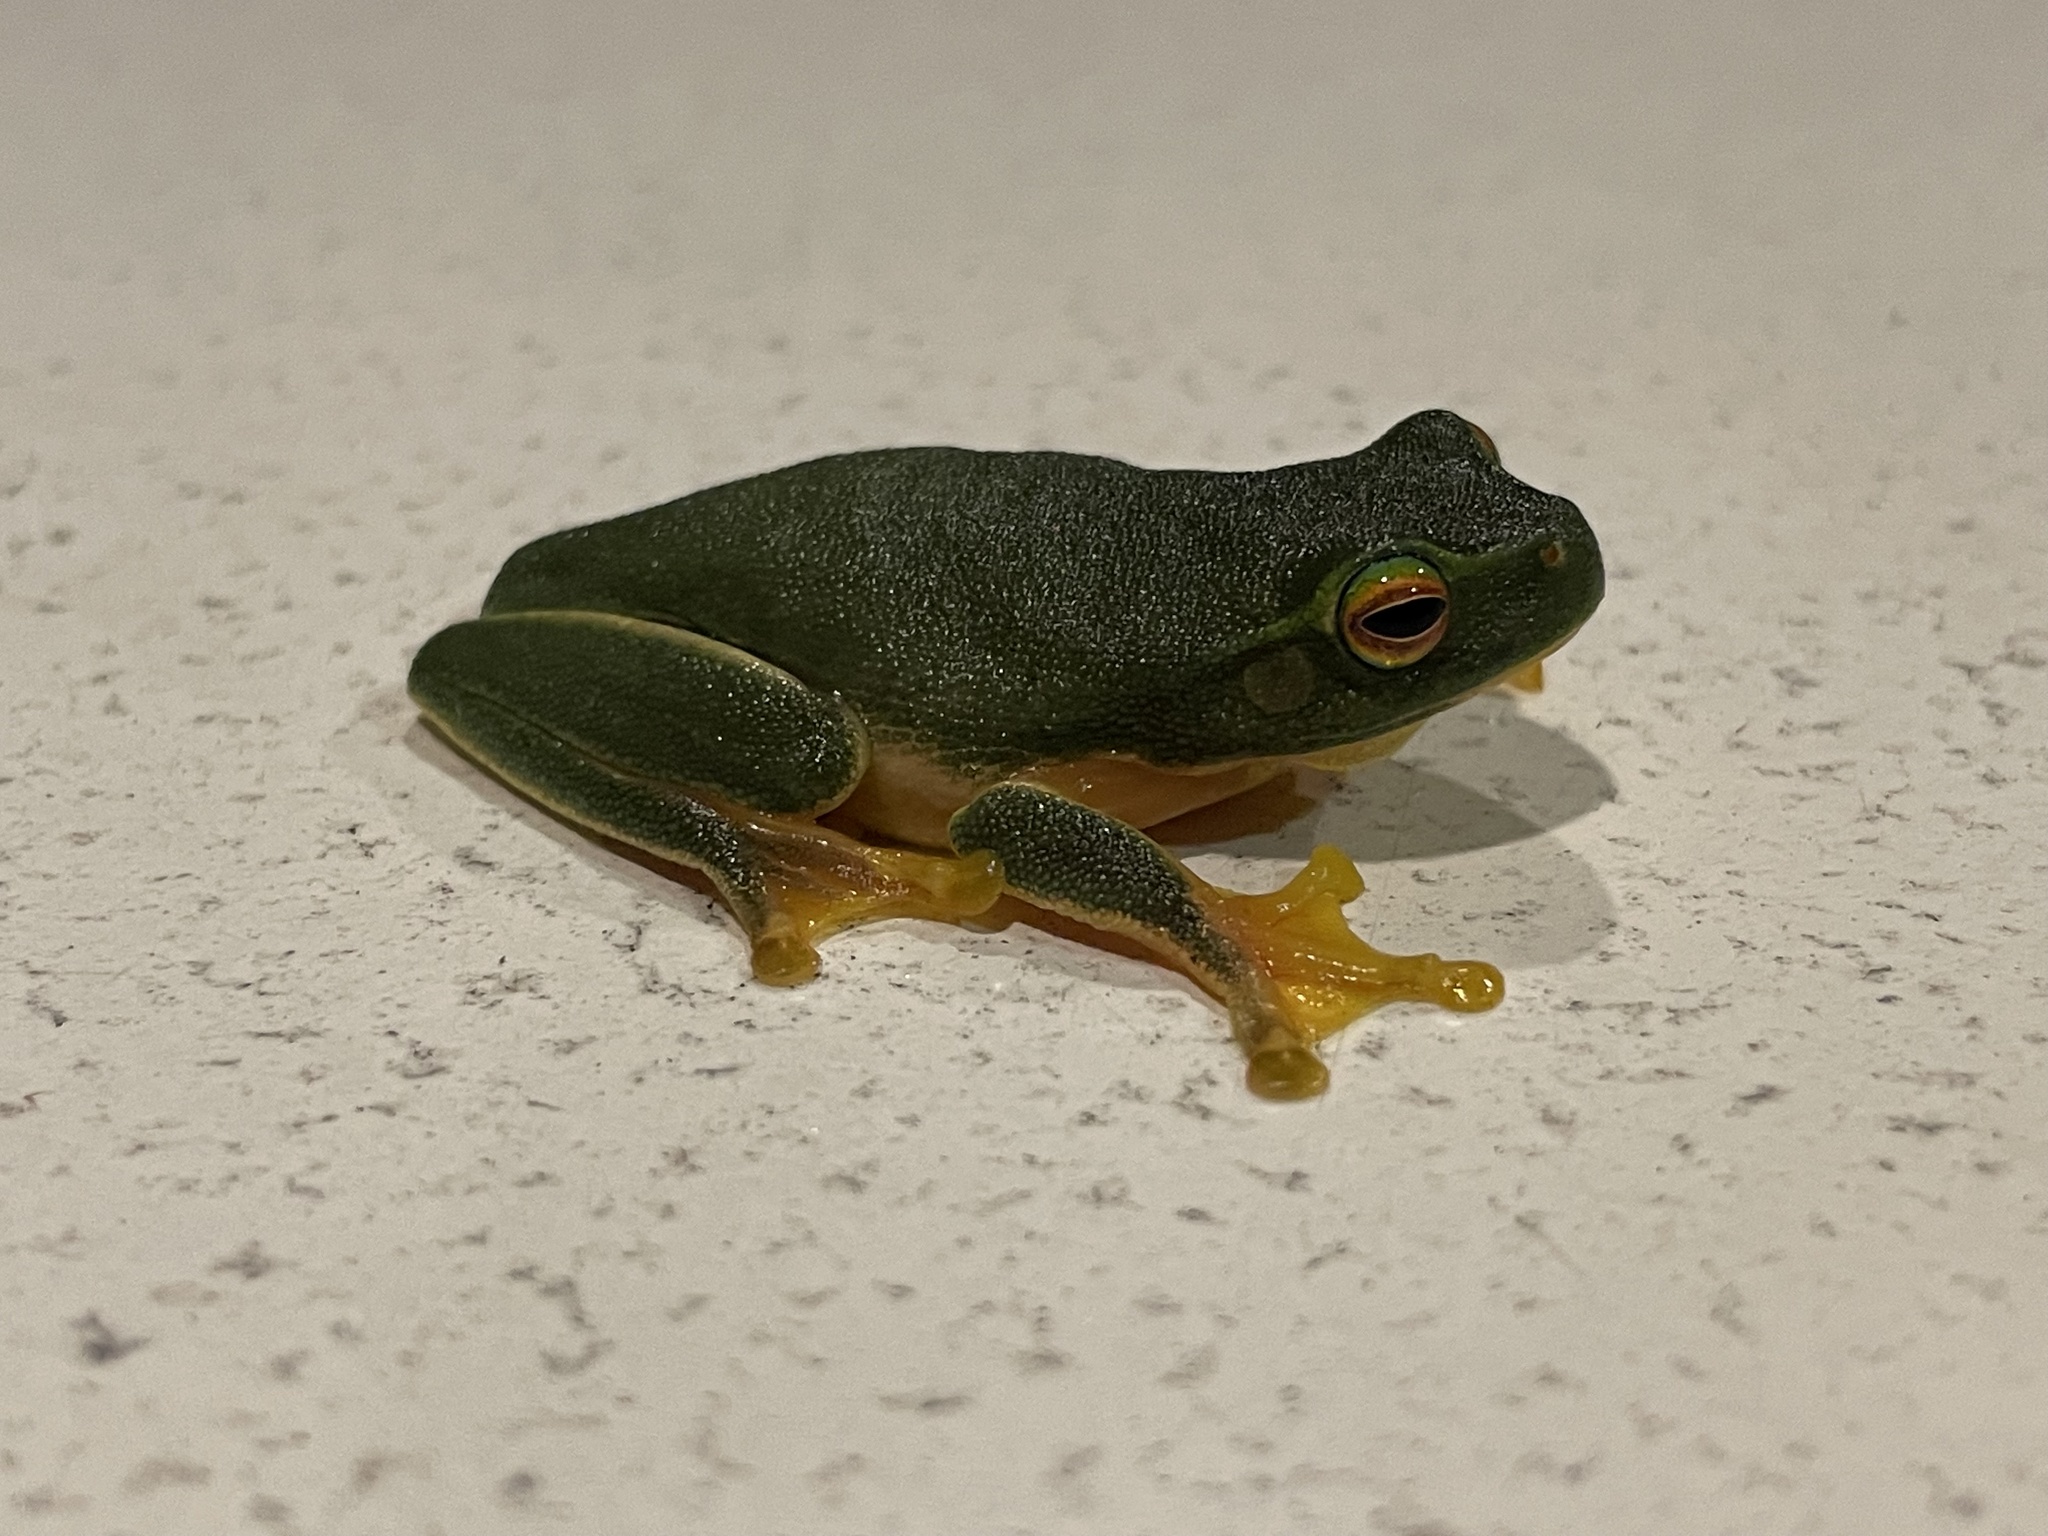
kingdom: Animalia
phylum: Chordata
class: Amphibia
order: Anura
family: Pelodryadidae
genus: Ranoidea
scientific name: Ranoidea gracilenta
